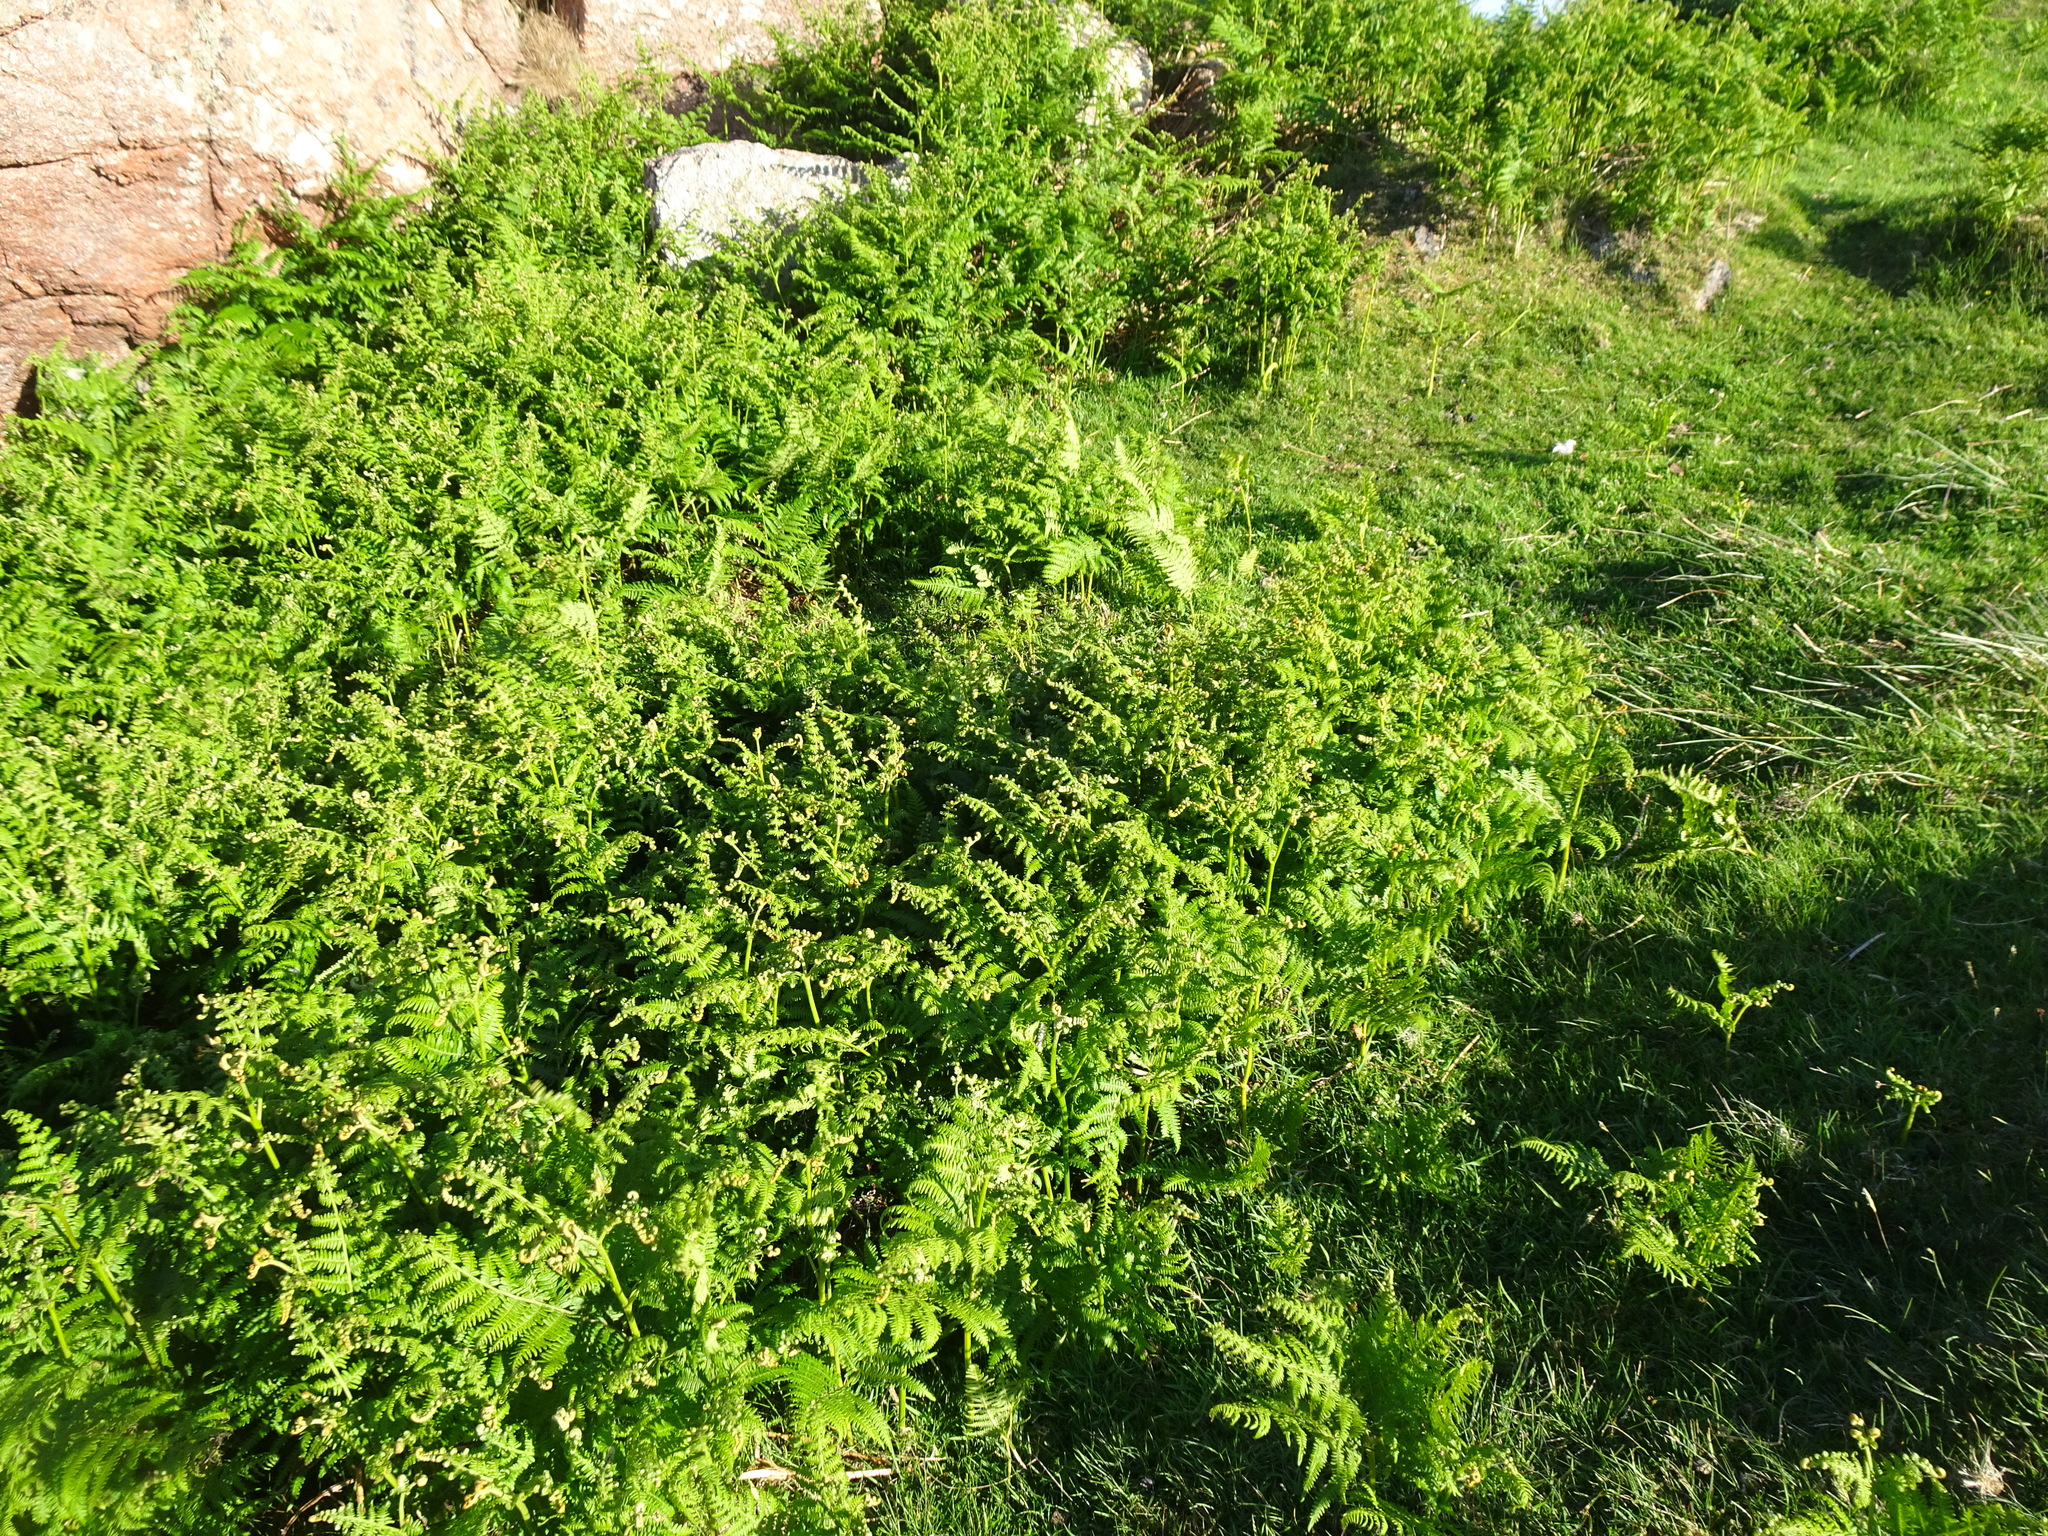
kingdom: Plantae
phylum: Tracheophyta
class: Polypodiopsida
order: Polypodiales
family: Dennstaedtiaceae
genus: Pteridium
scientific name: Pteridium aquilinum
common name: Bracken
